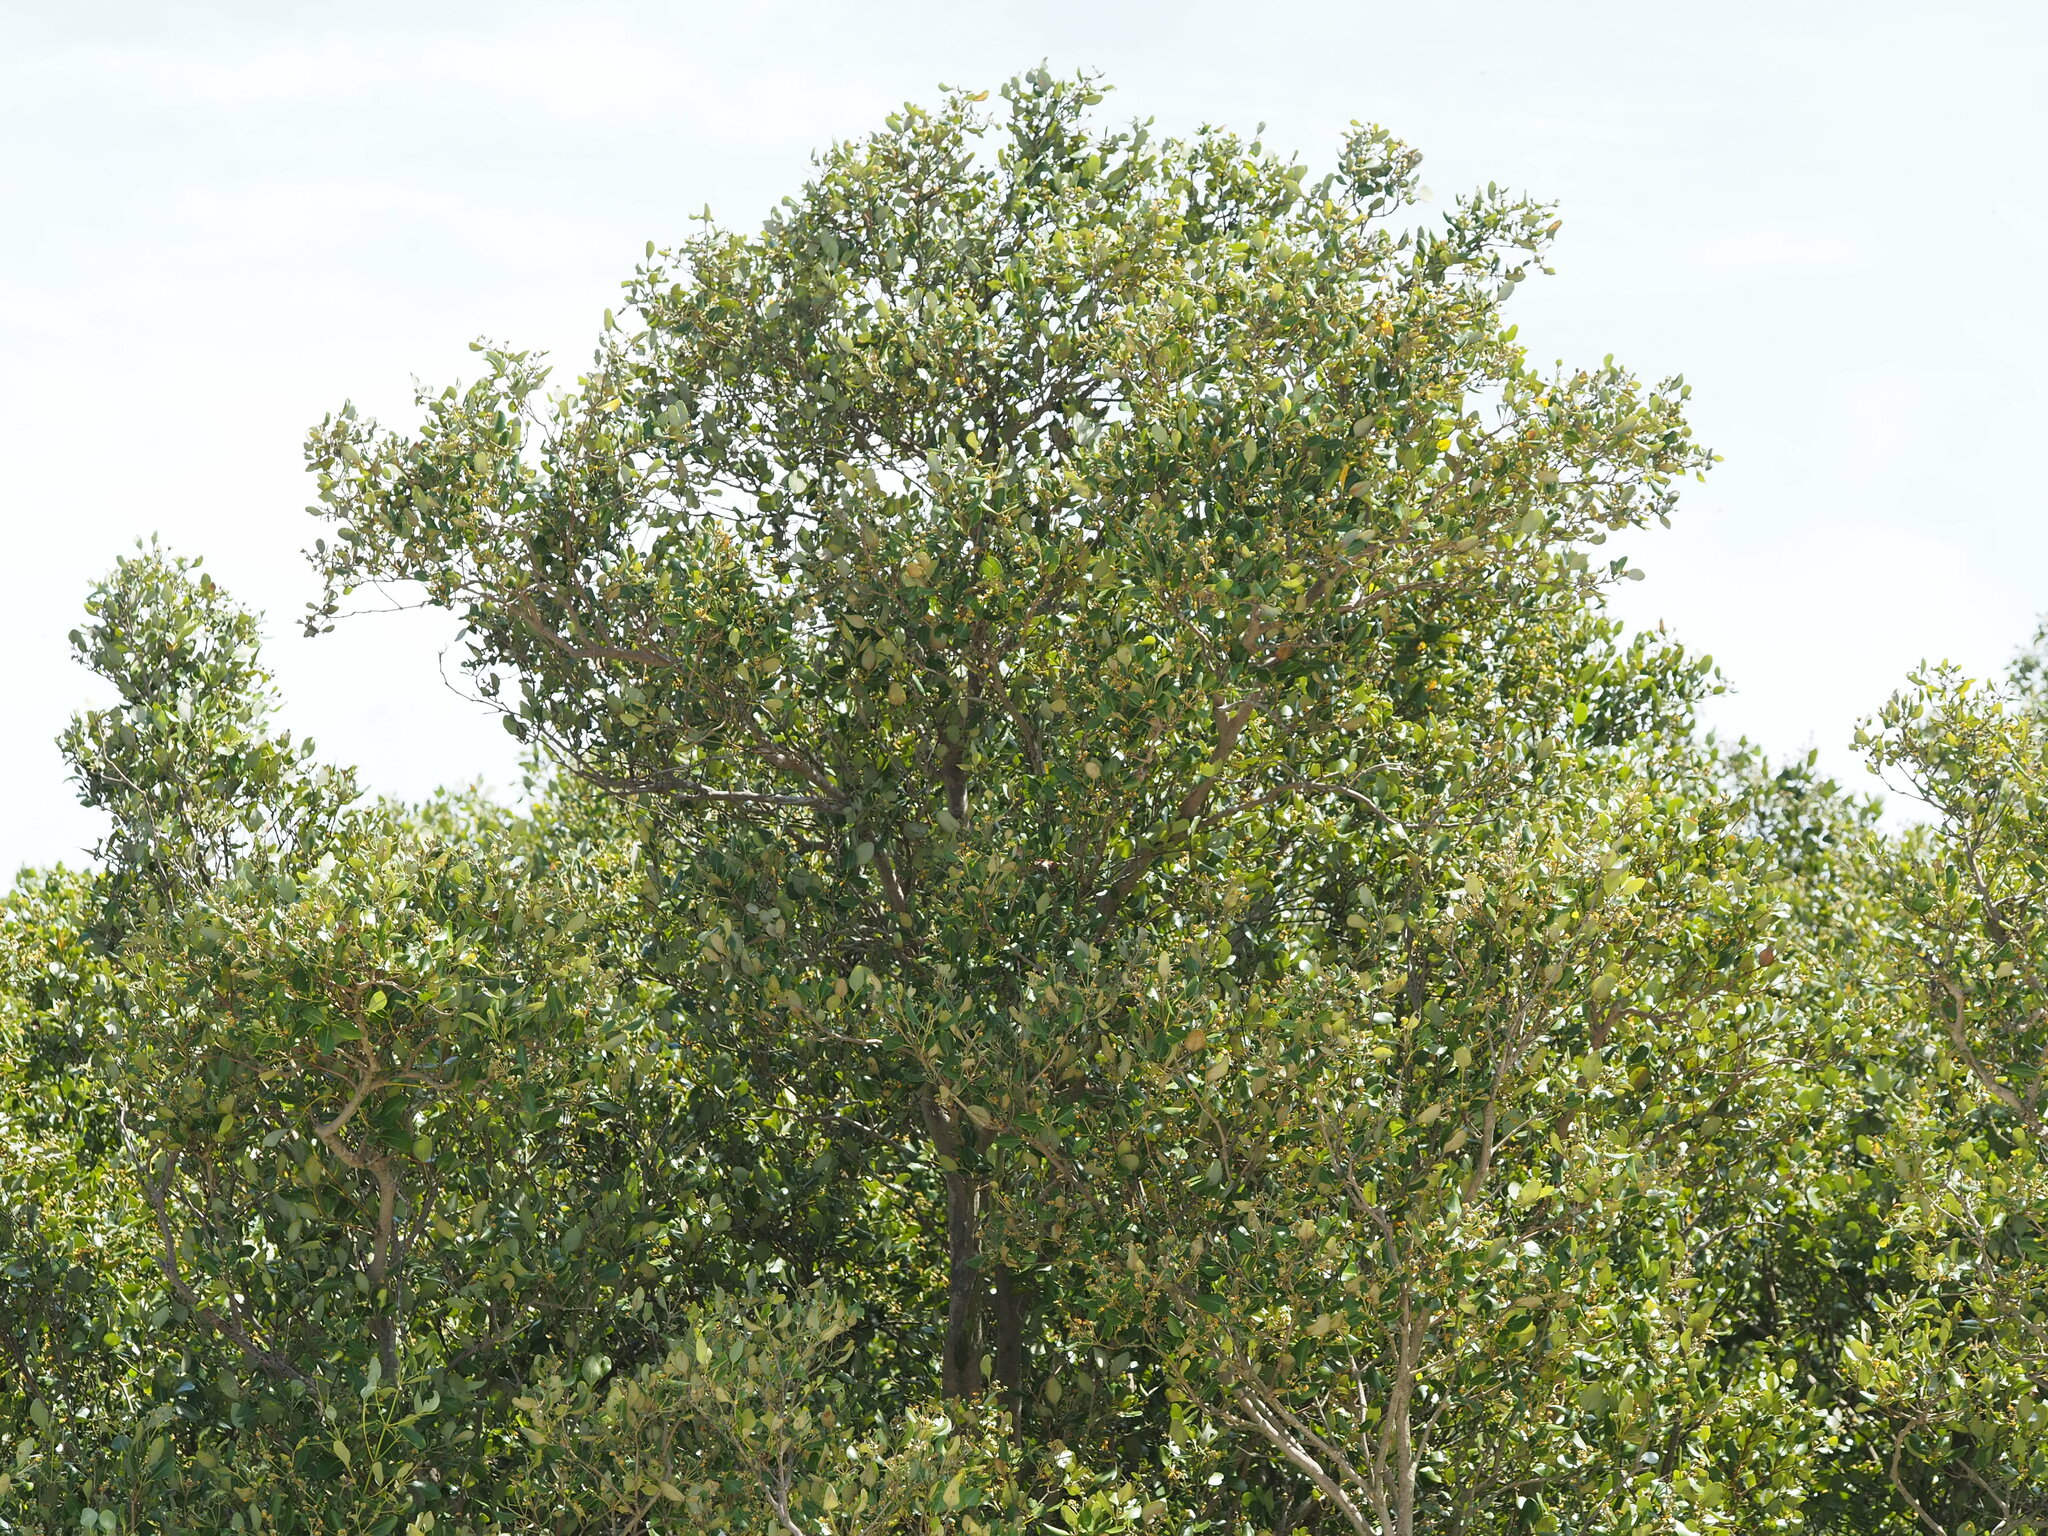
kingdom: Plantae
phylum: Tracheophyta
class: Magnoliopsida
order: Lamiales
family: Acanthaceae
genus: Avicennia
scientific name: Avicennia marina
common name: Gray mangrove
